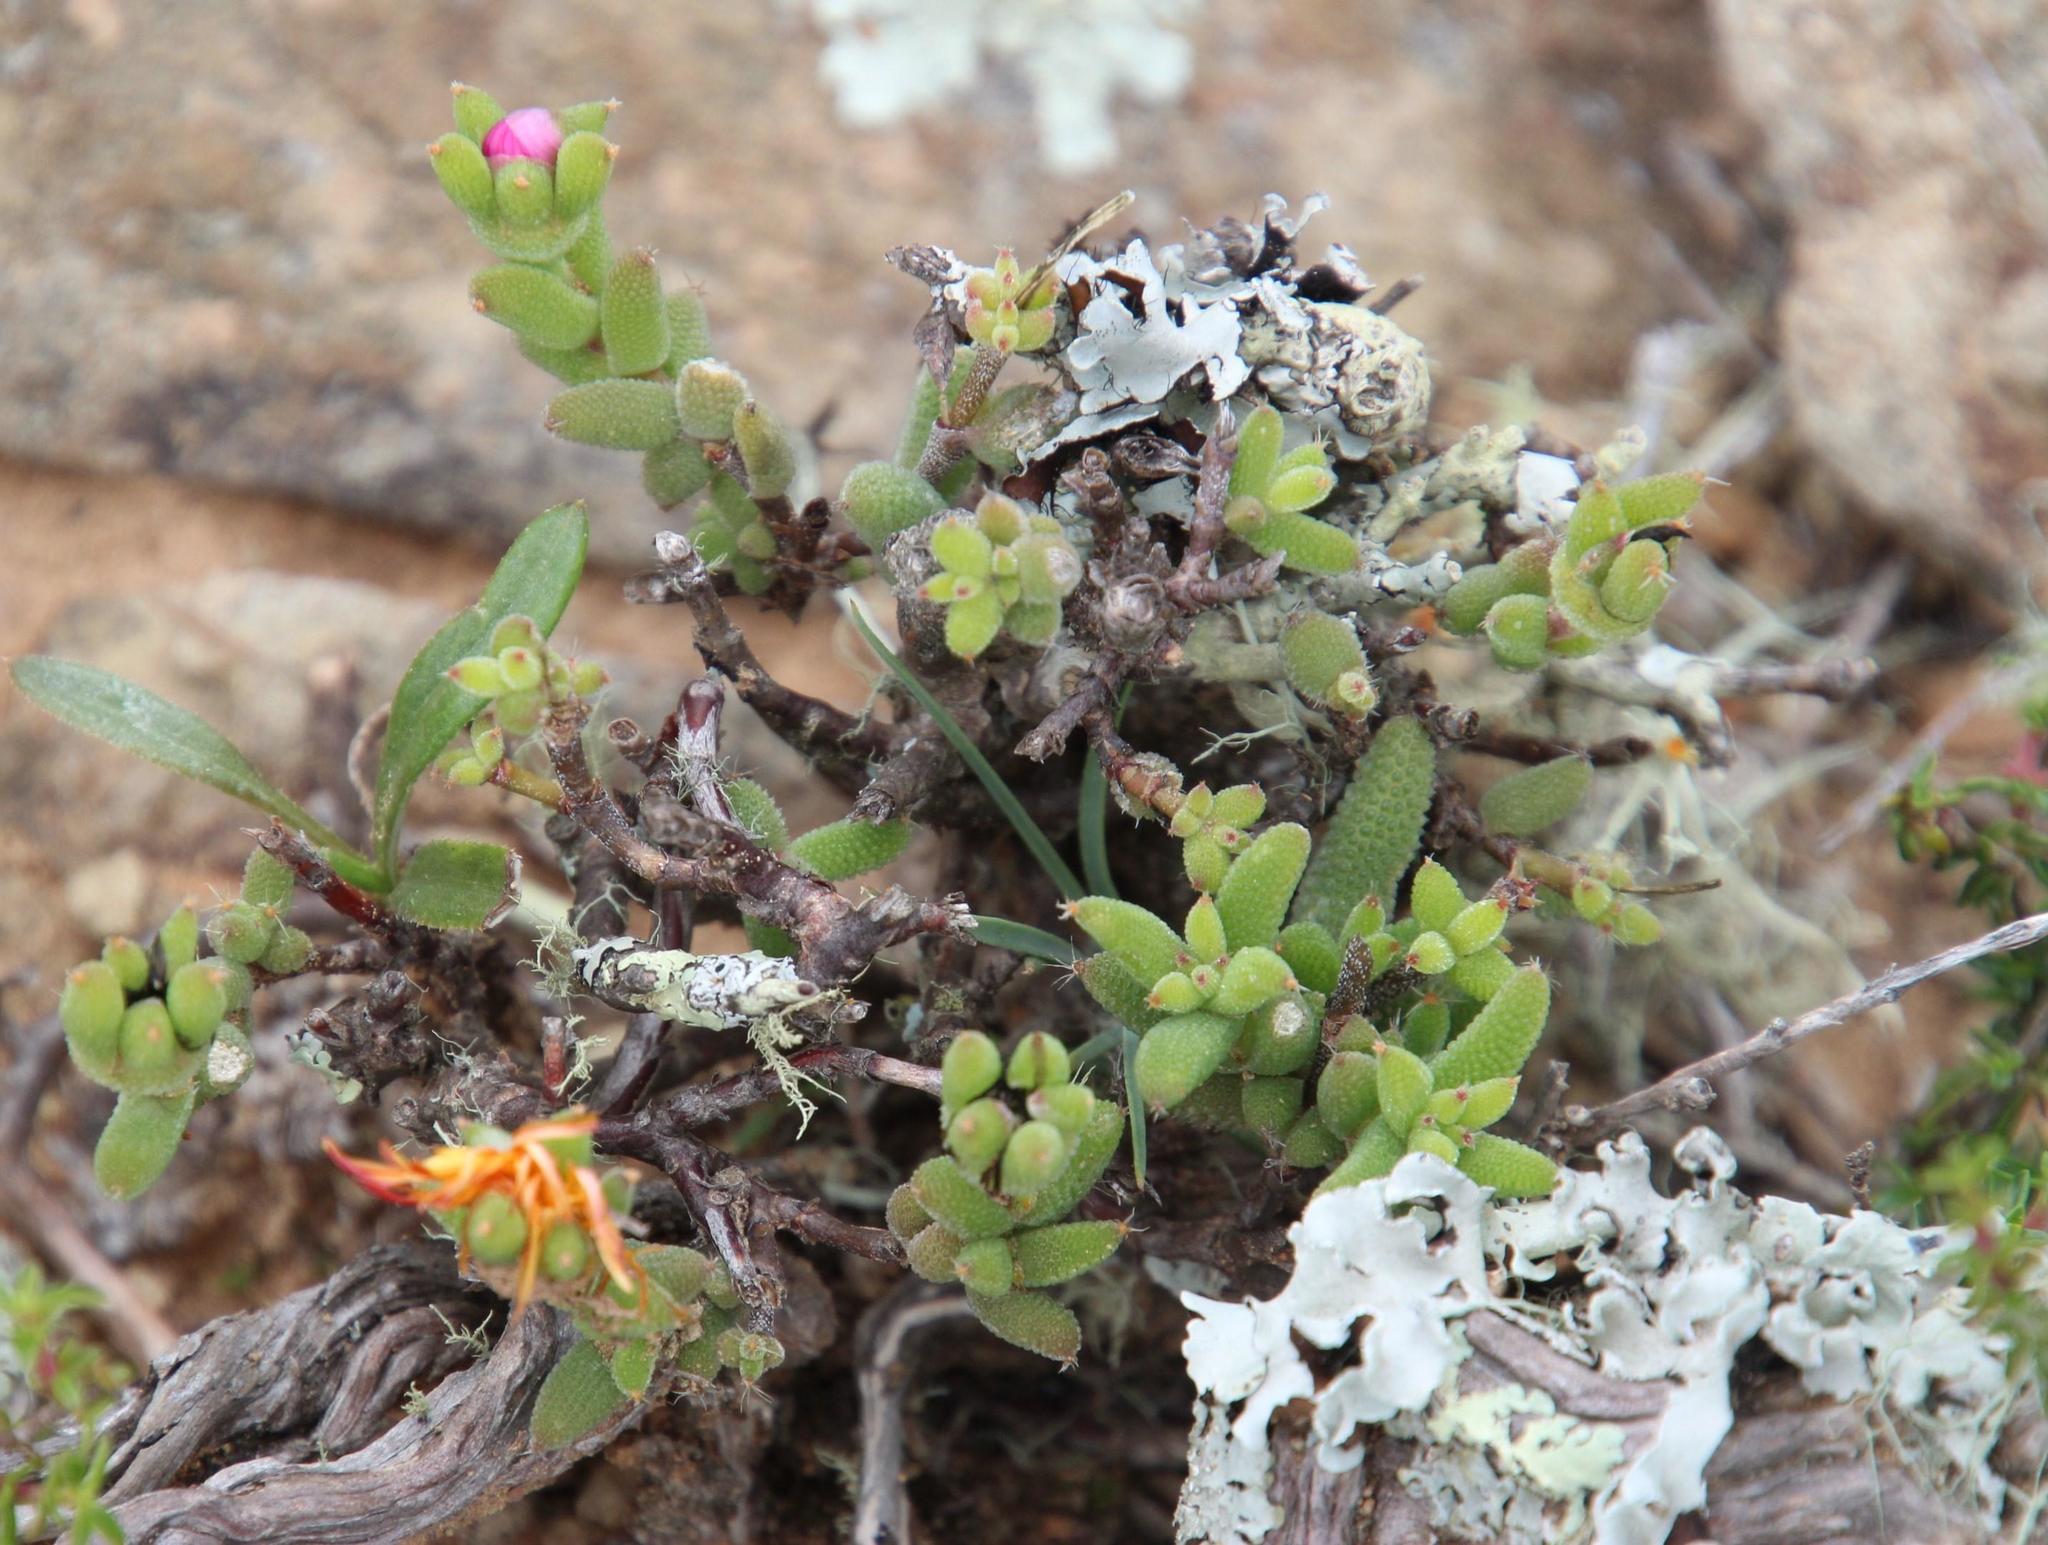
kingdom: Plantae
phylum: Tracheophyta
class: Magnoliopsida
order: Caryophyllales
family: Aizoaceae
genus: Trichodiadema
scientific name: Trichodiadema rogersiae
